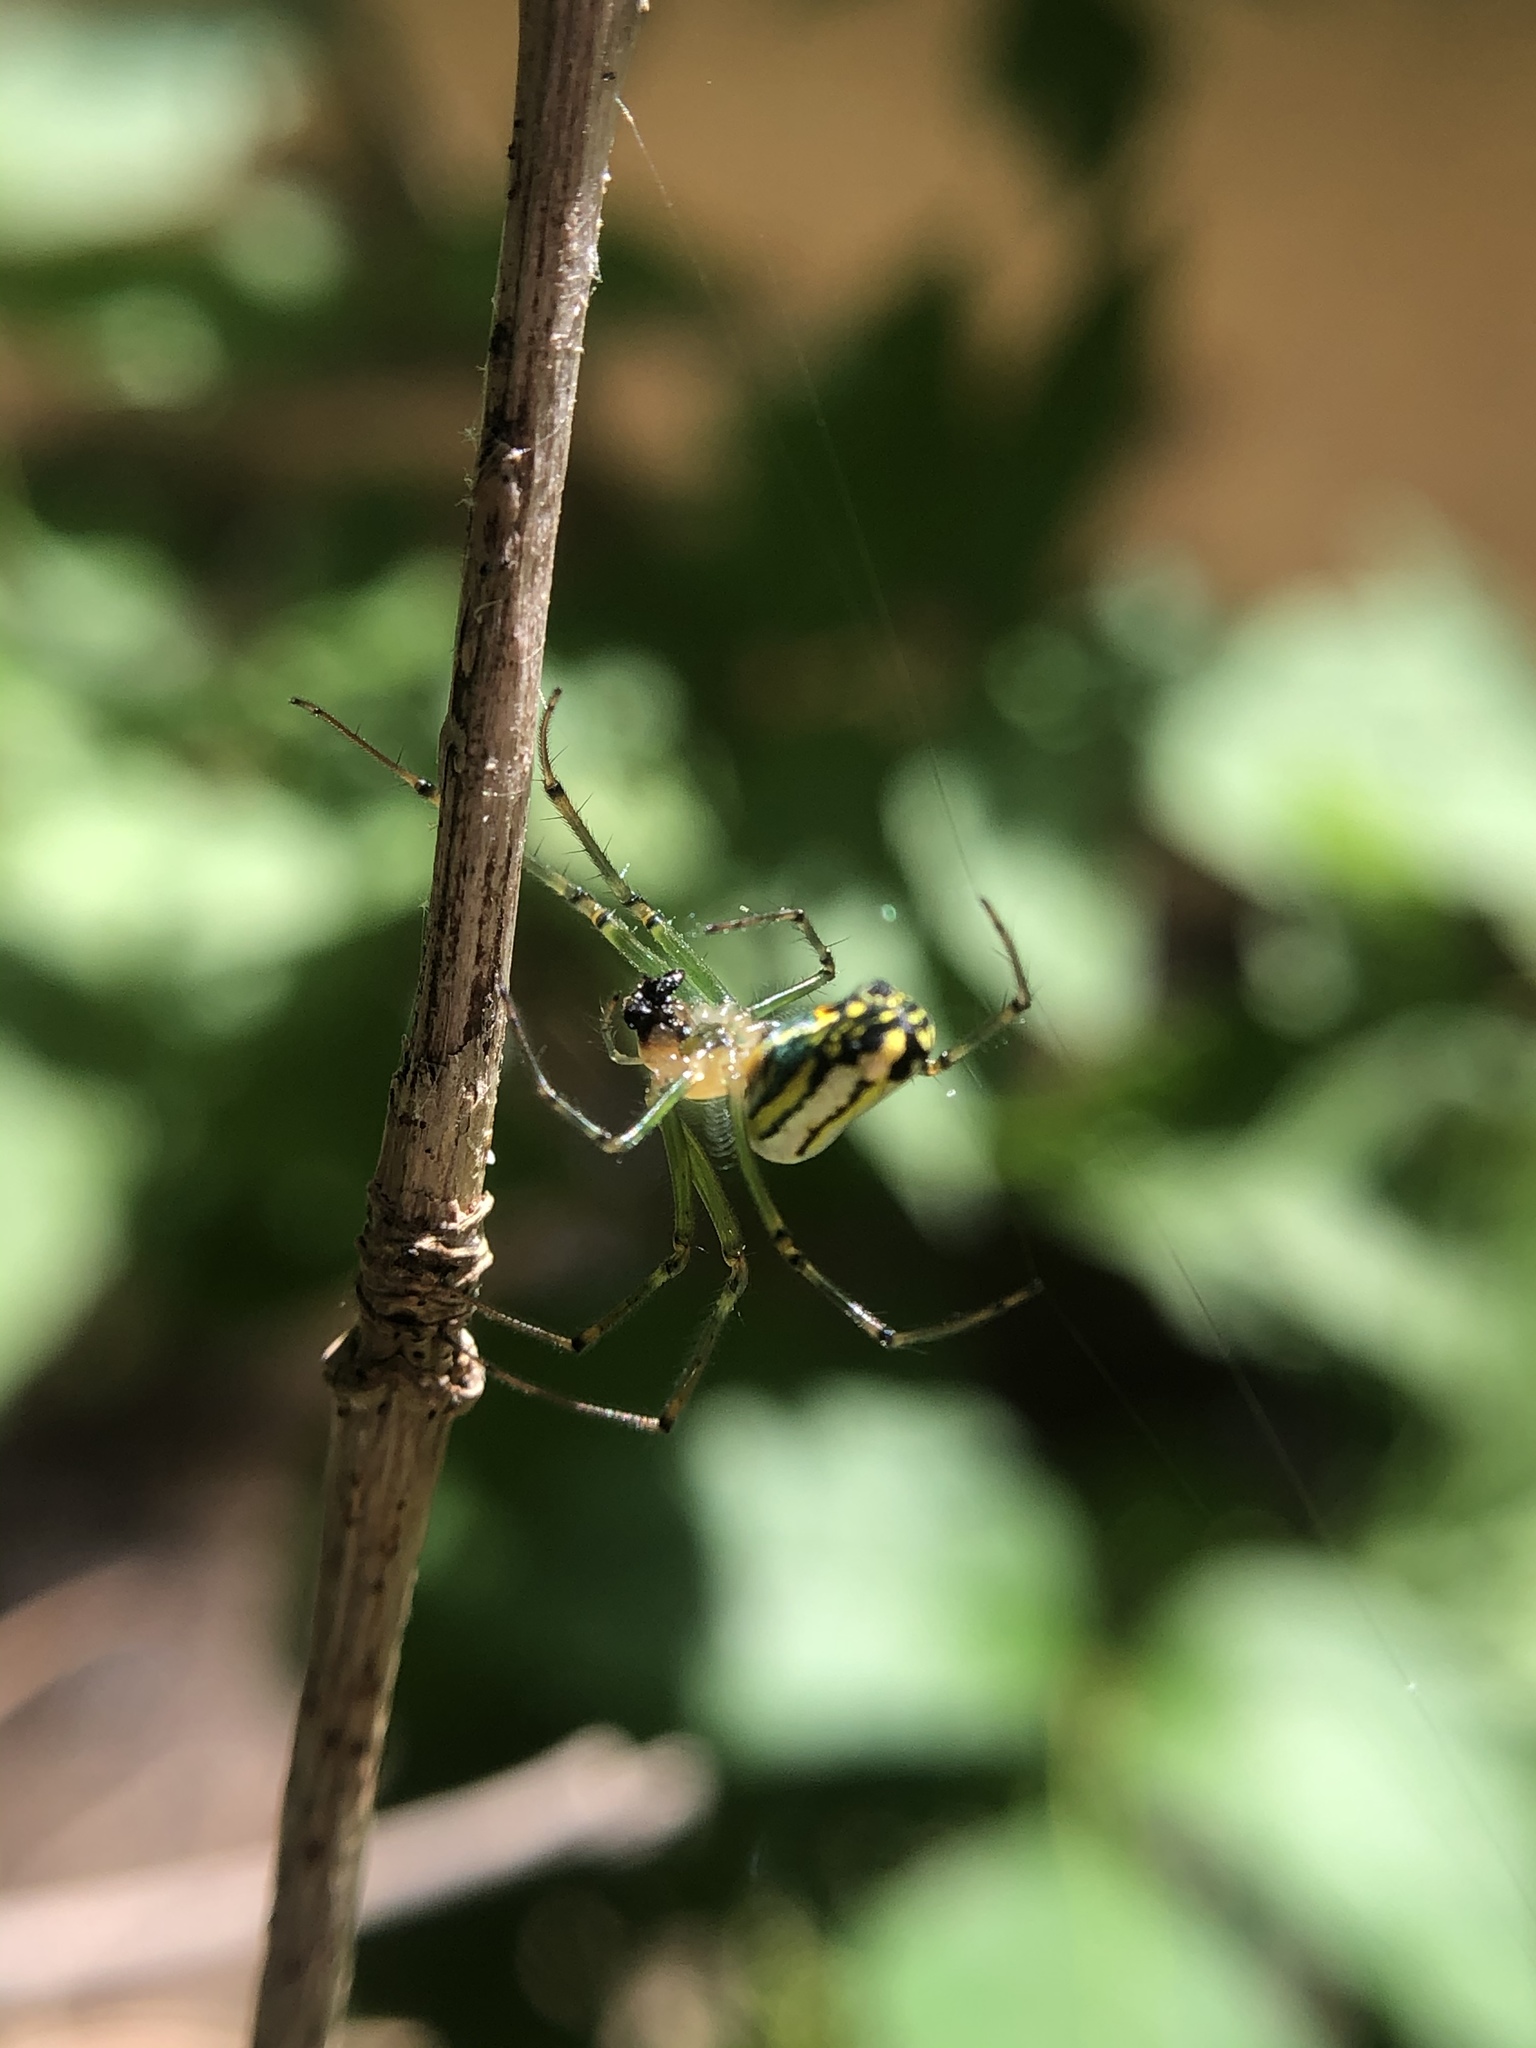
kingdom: Animalia
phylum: Arthropoda
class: Arachnida
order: Araneae
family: Tetragnathidae
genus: Leucauge
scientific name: Leucauge venusta
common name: Longjawed orb weavers
